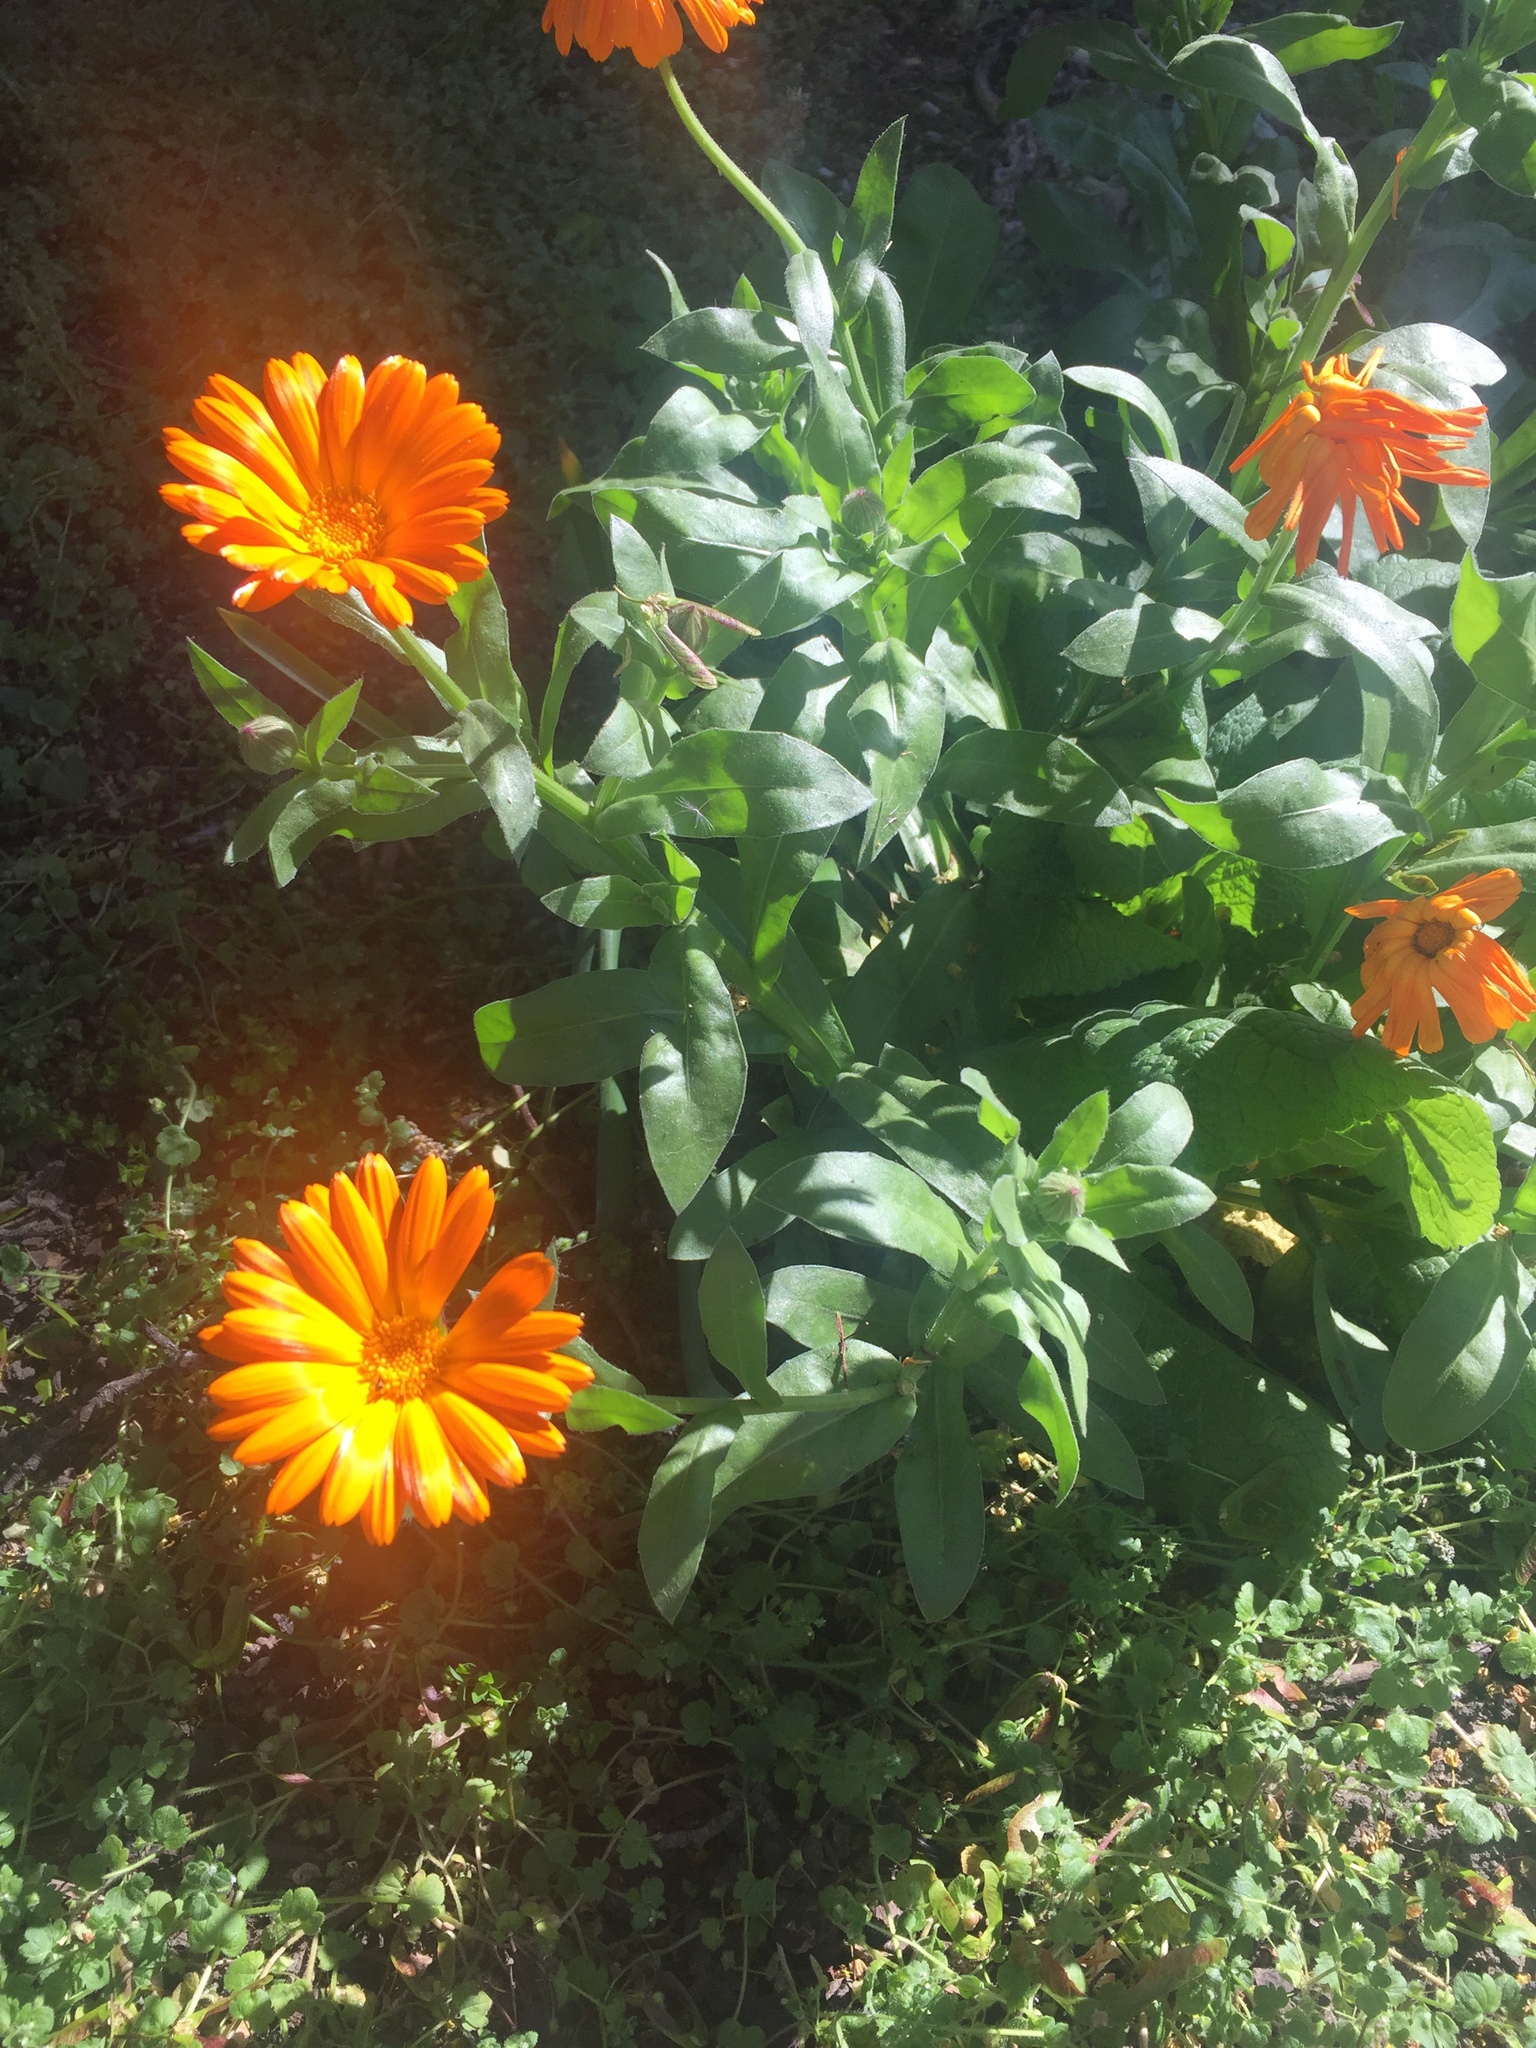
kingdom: Plantae
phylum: Tracheophyta
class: Magnoliopsida
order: Asterales
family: Asteraceae
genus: Calendula
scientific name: Calendula officinalis
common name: Pot marigold
